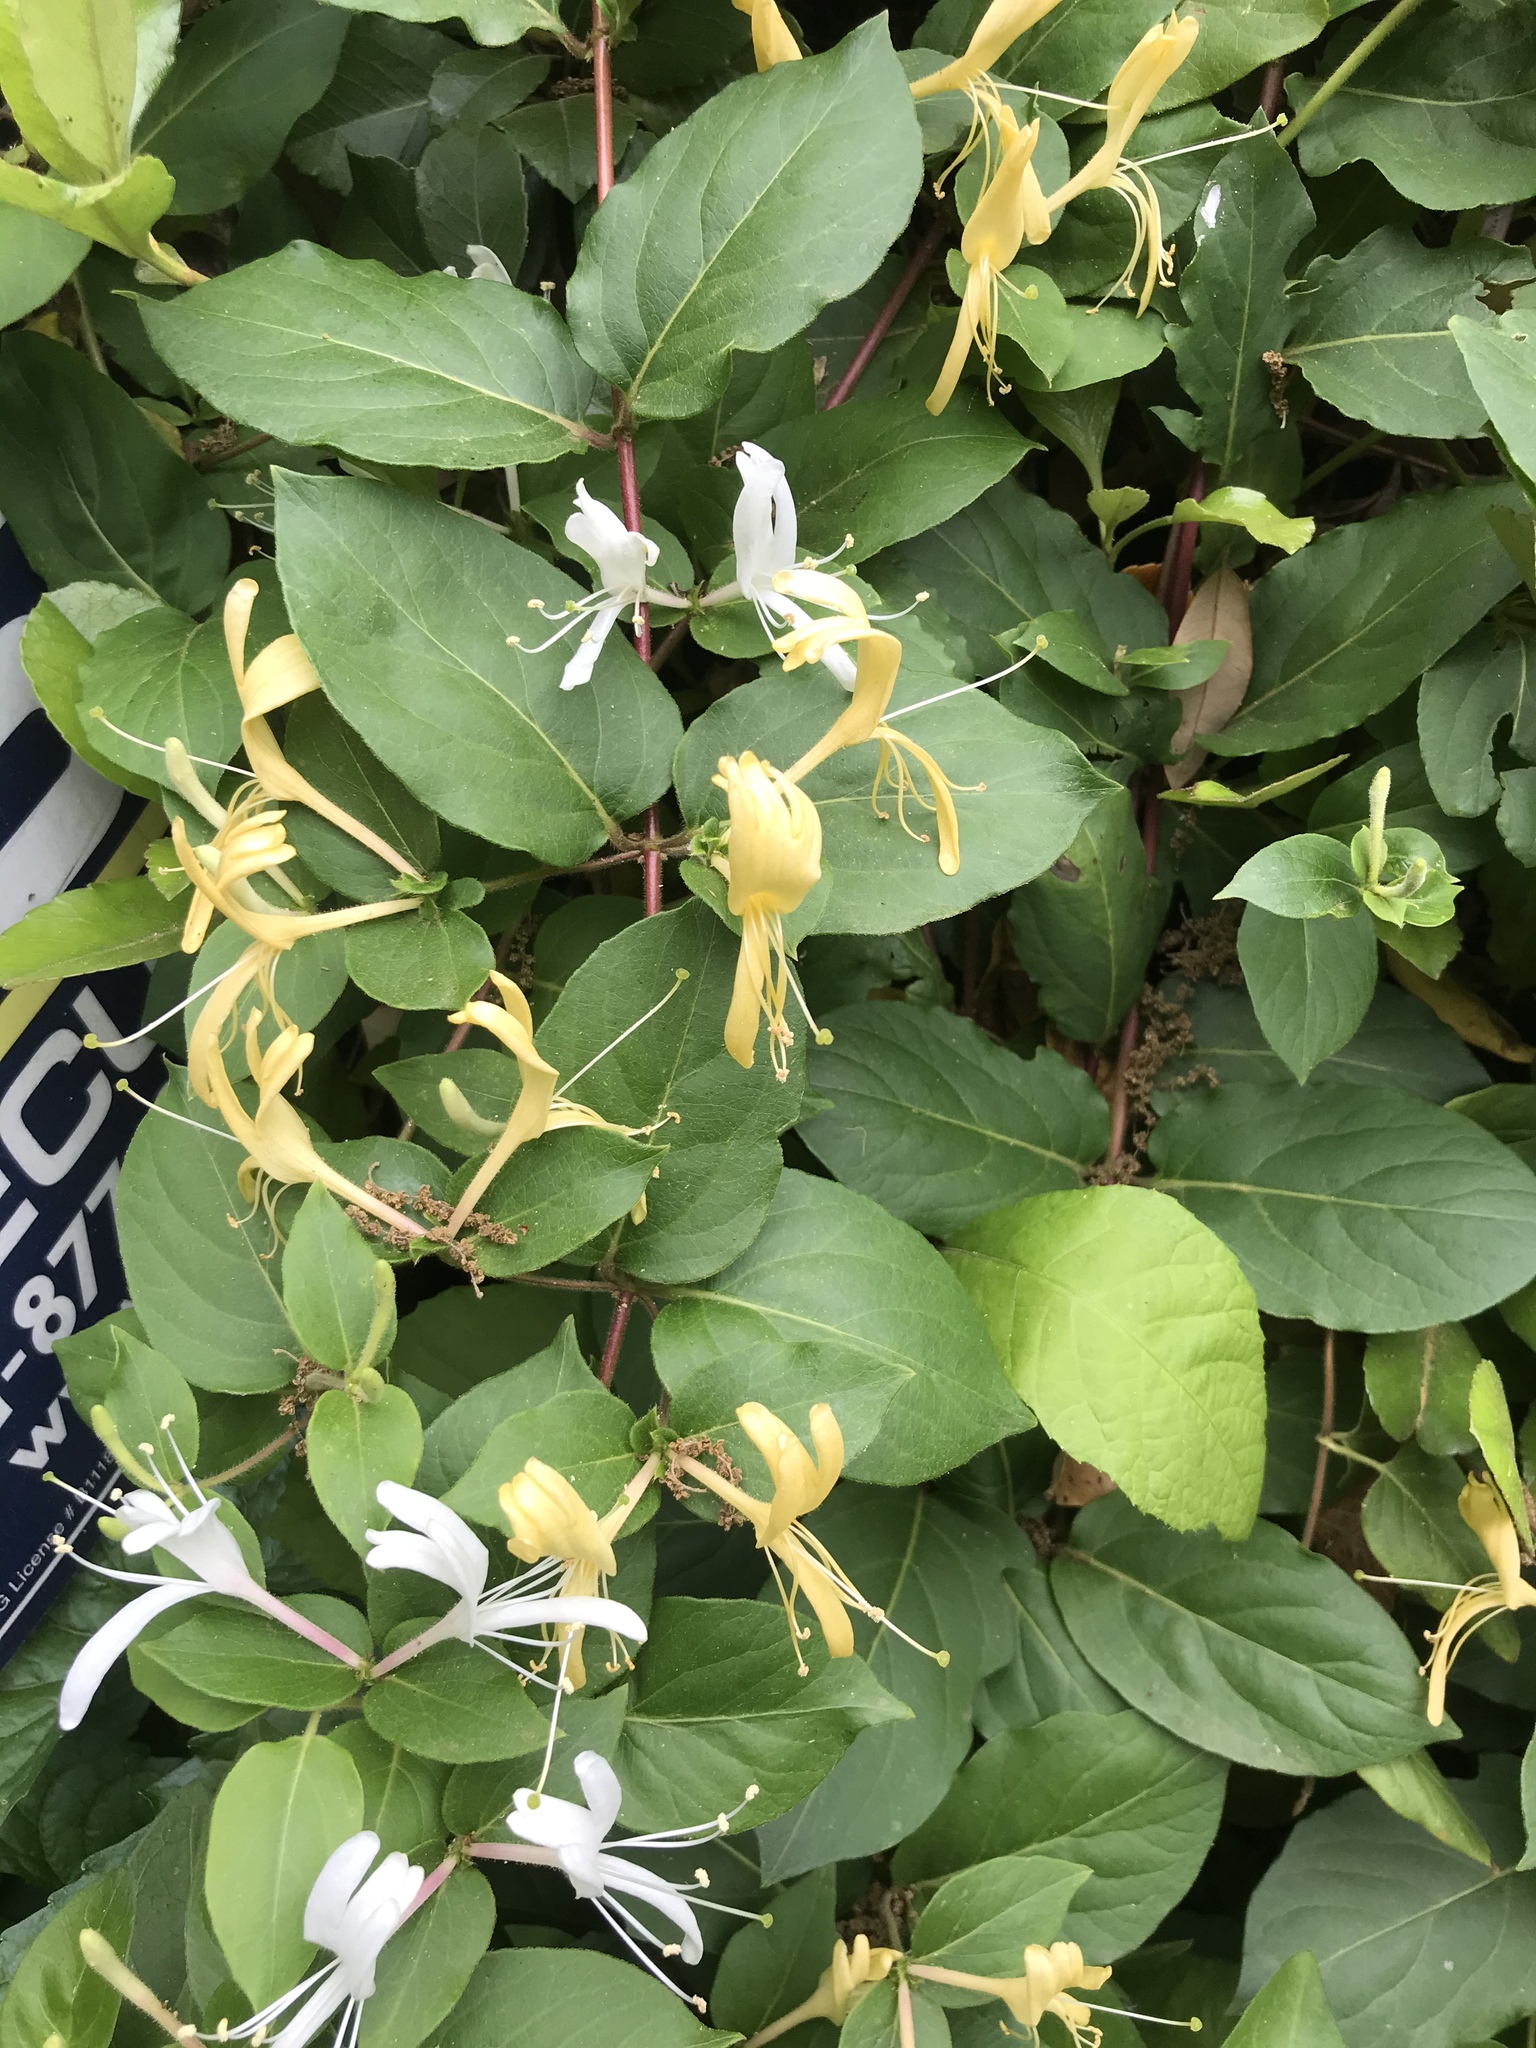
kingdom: Plantae
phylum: Tracheophyta
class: Magnoliopsida
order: Dipsacales
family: Caprifoliaceae
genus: Lonicera
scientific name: Lonicera japonica
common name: Japanese honeysuckle
